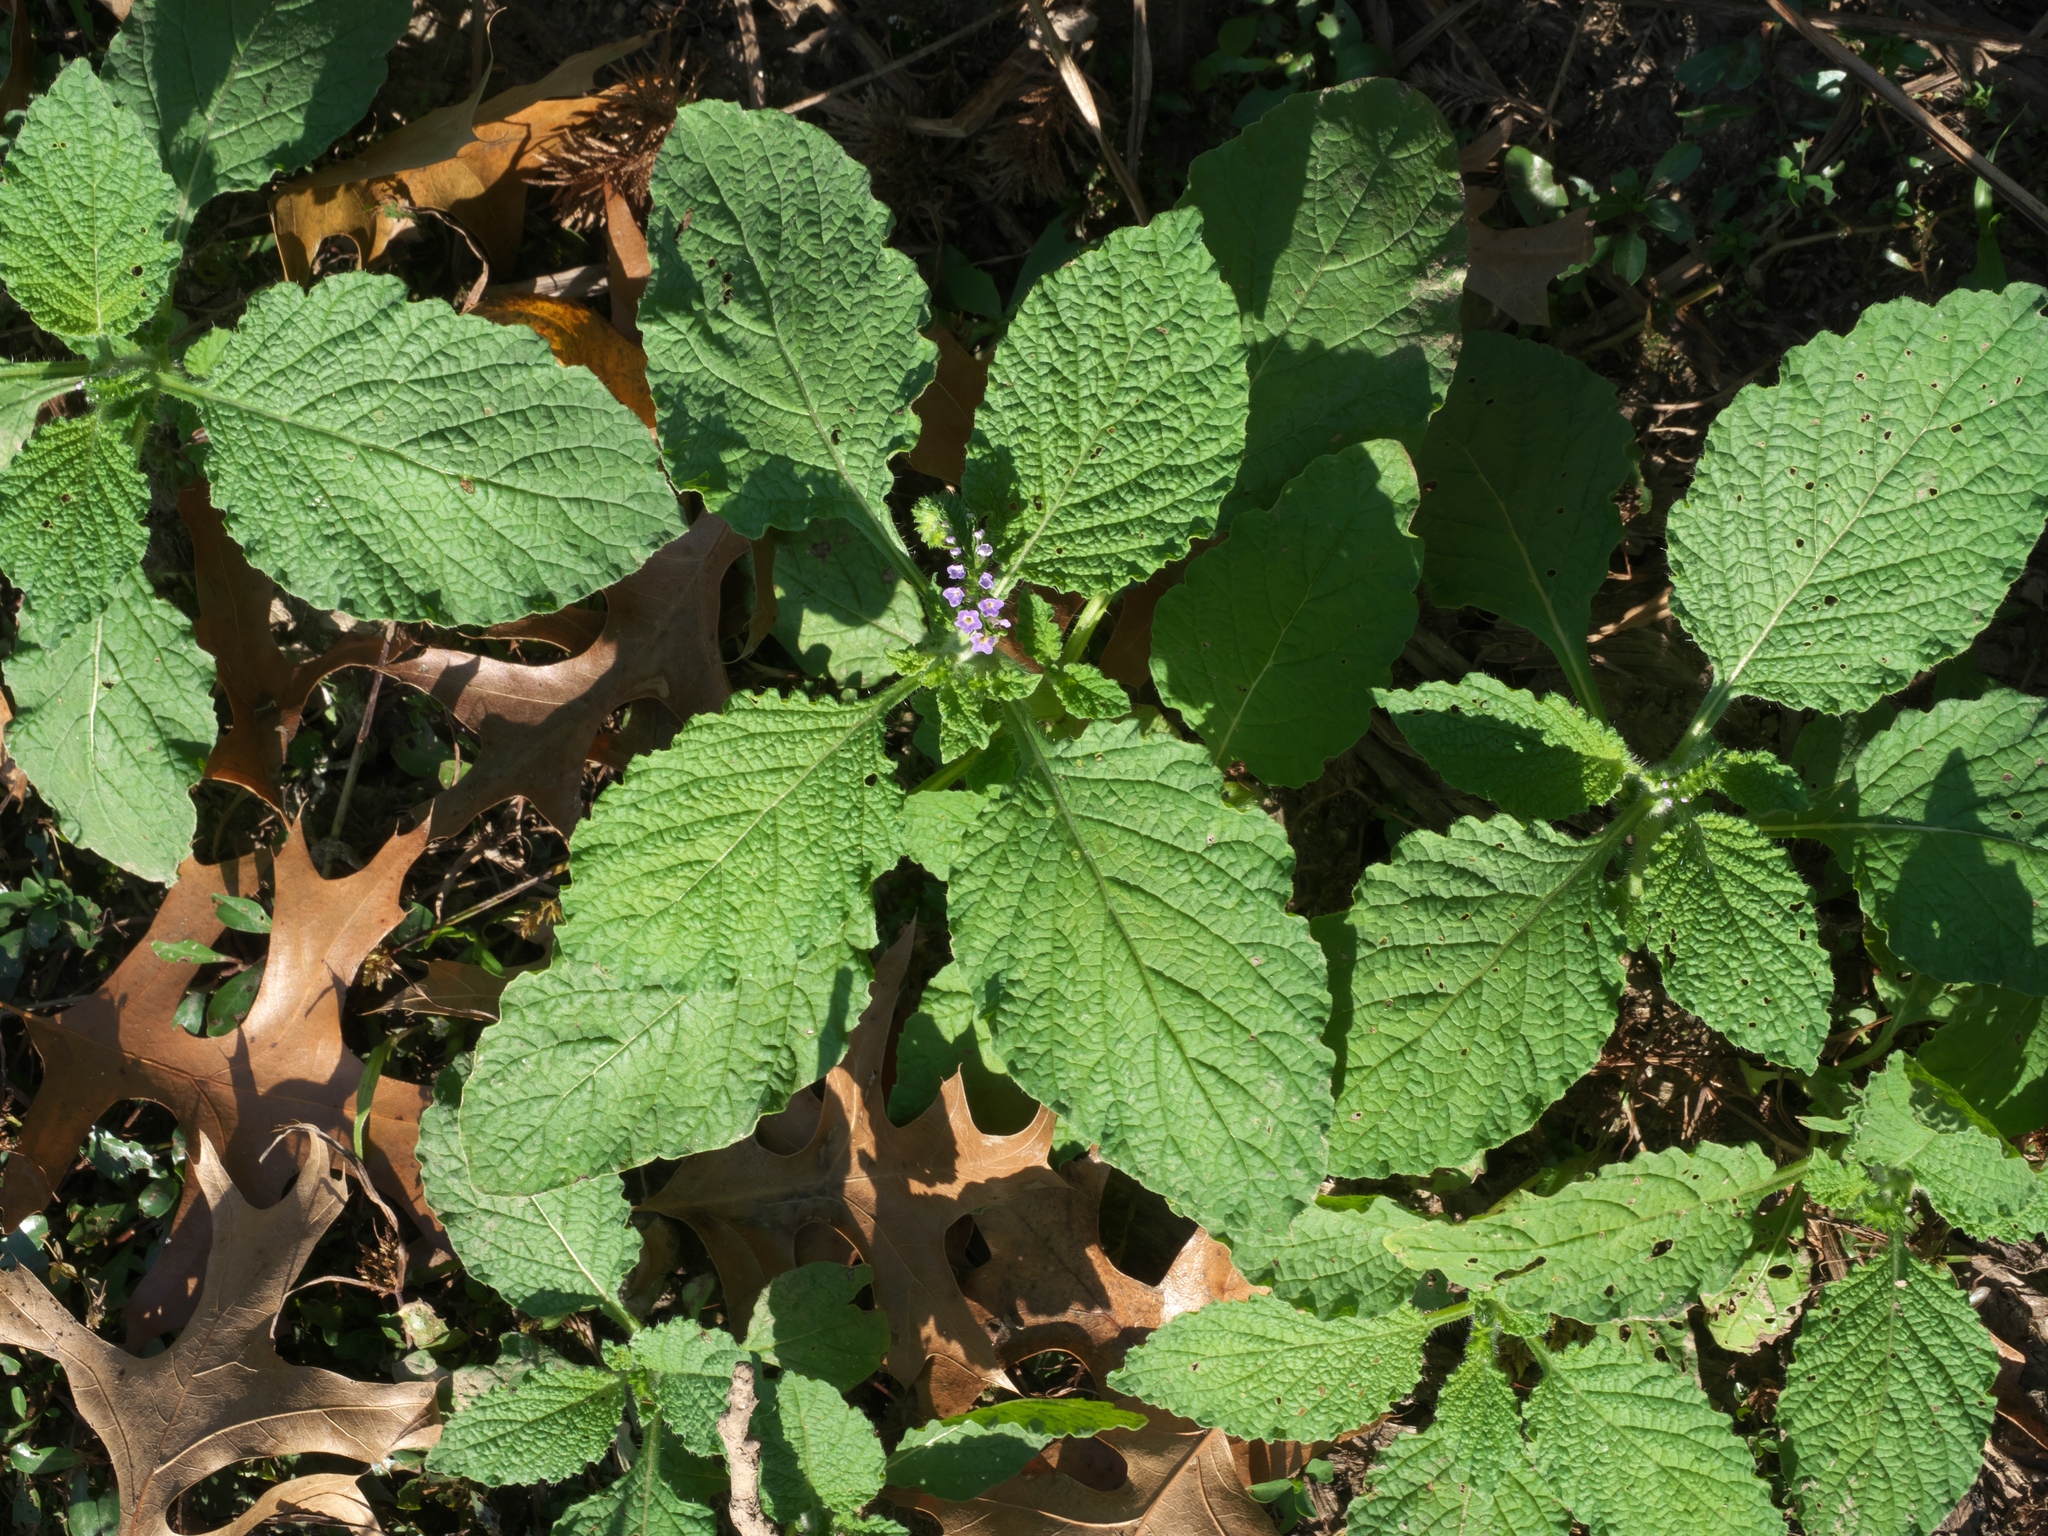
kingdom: Plantae
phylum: Tracheophyta
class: Magnoliopsida
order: Boraginales
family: Heliotropiaceae
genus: Heliotropium
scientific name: Heliotropium indicum
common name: Indian heliotrope
